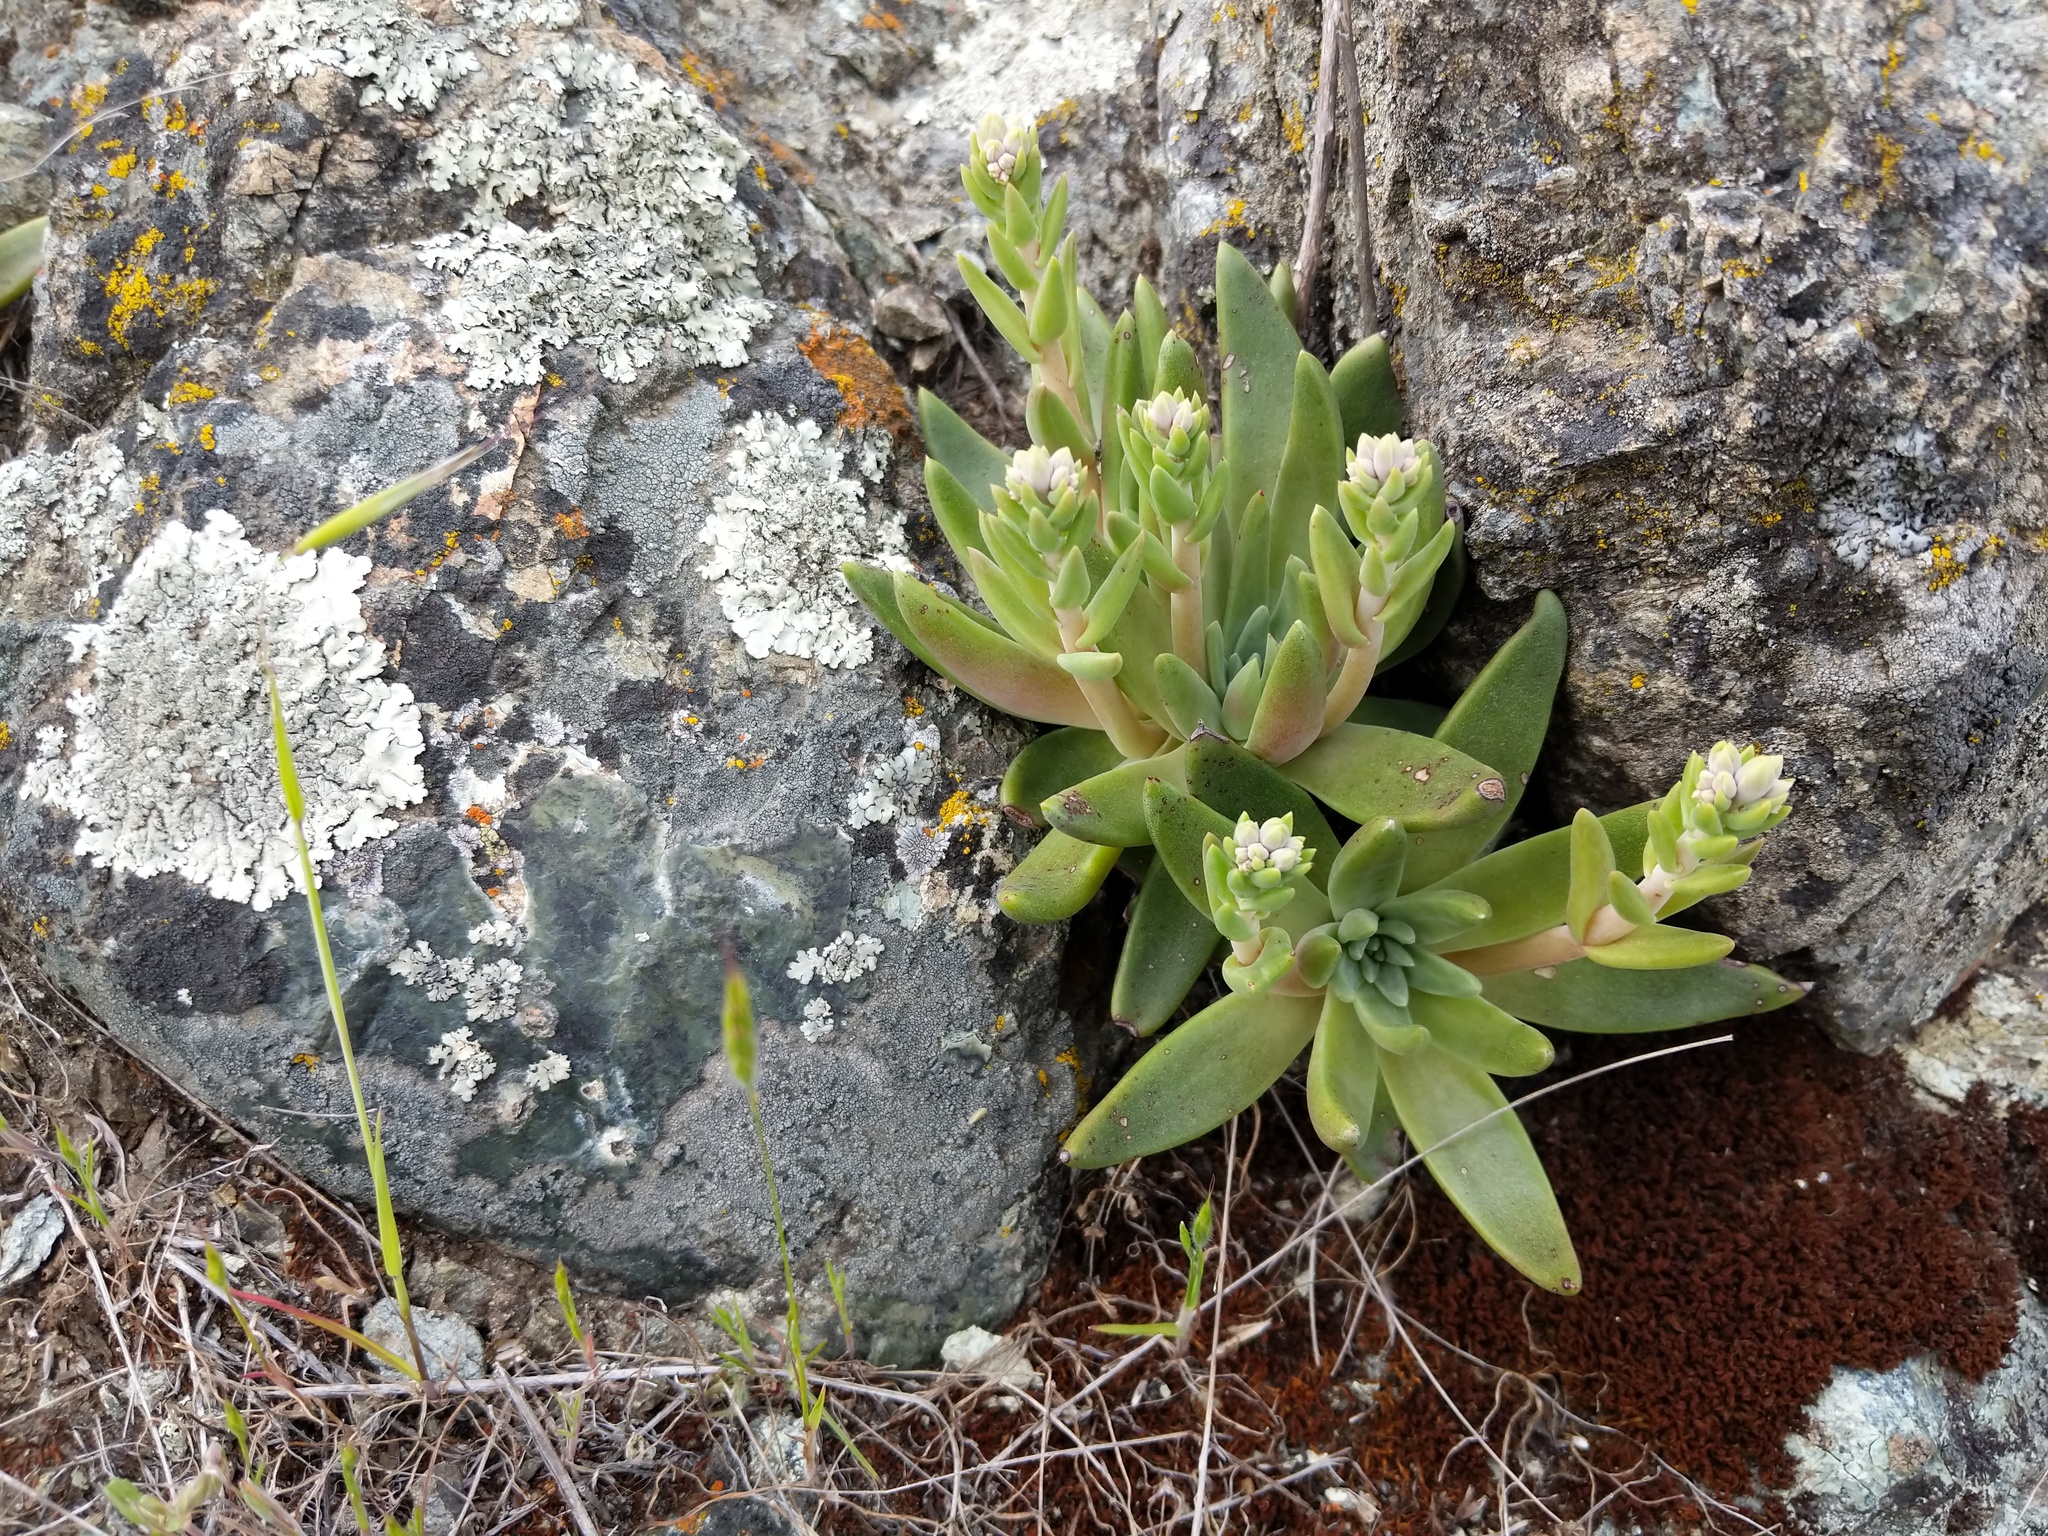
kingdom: Plantae
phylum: Tracheophyta
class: Magnoliopsida
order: Saxifragales
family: Crassulaceae
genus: Dudleya
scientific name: Dudleya abramsii
